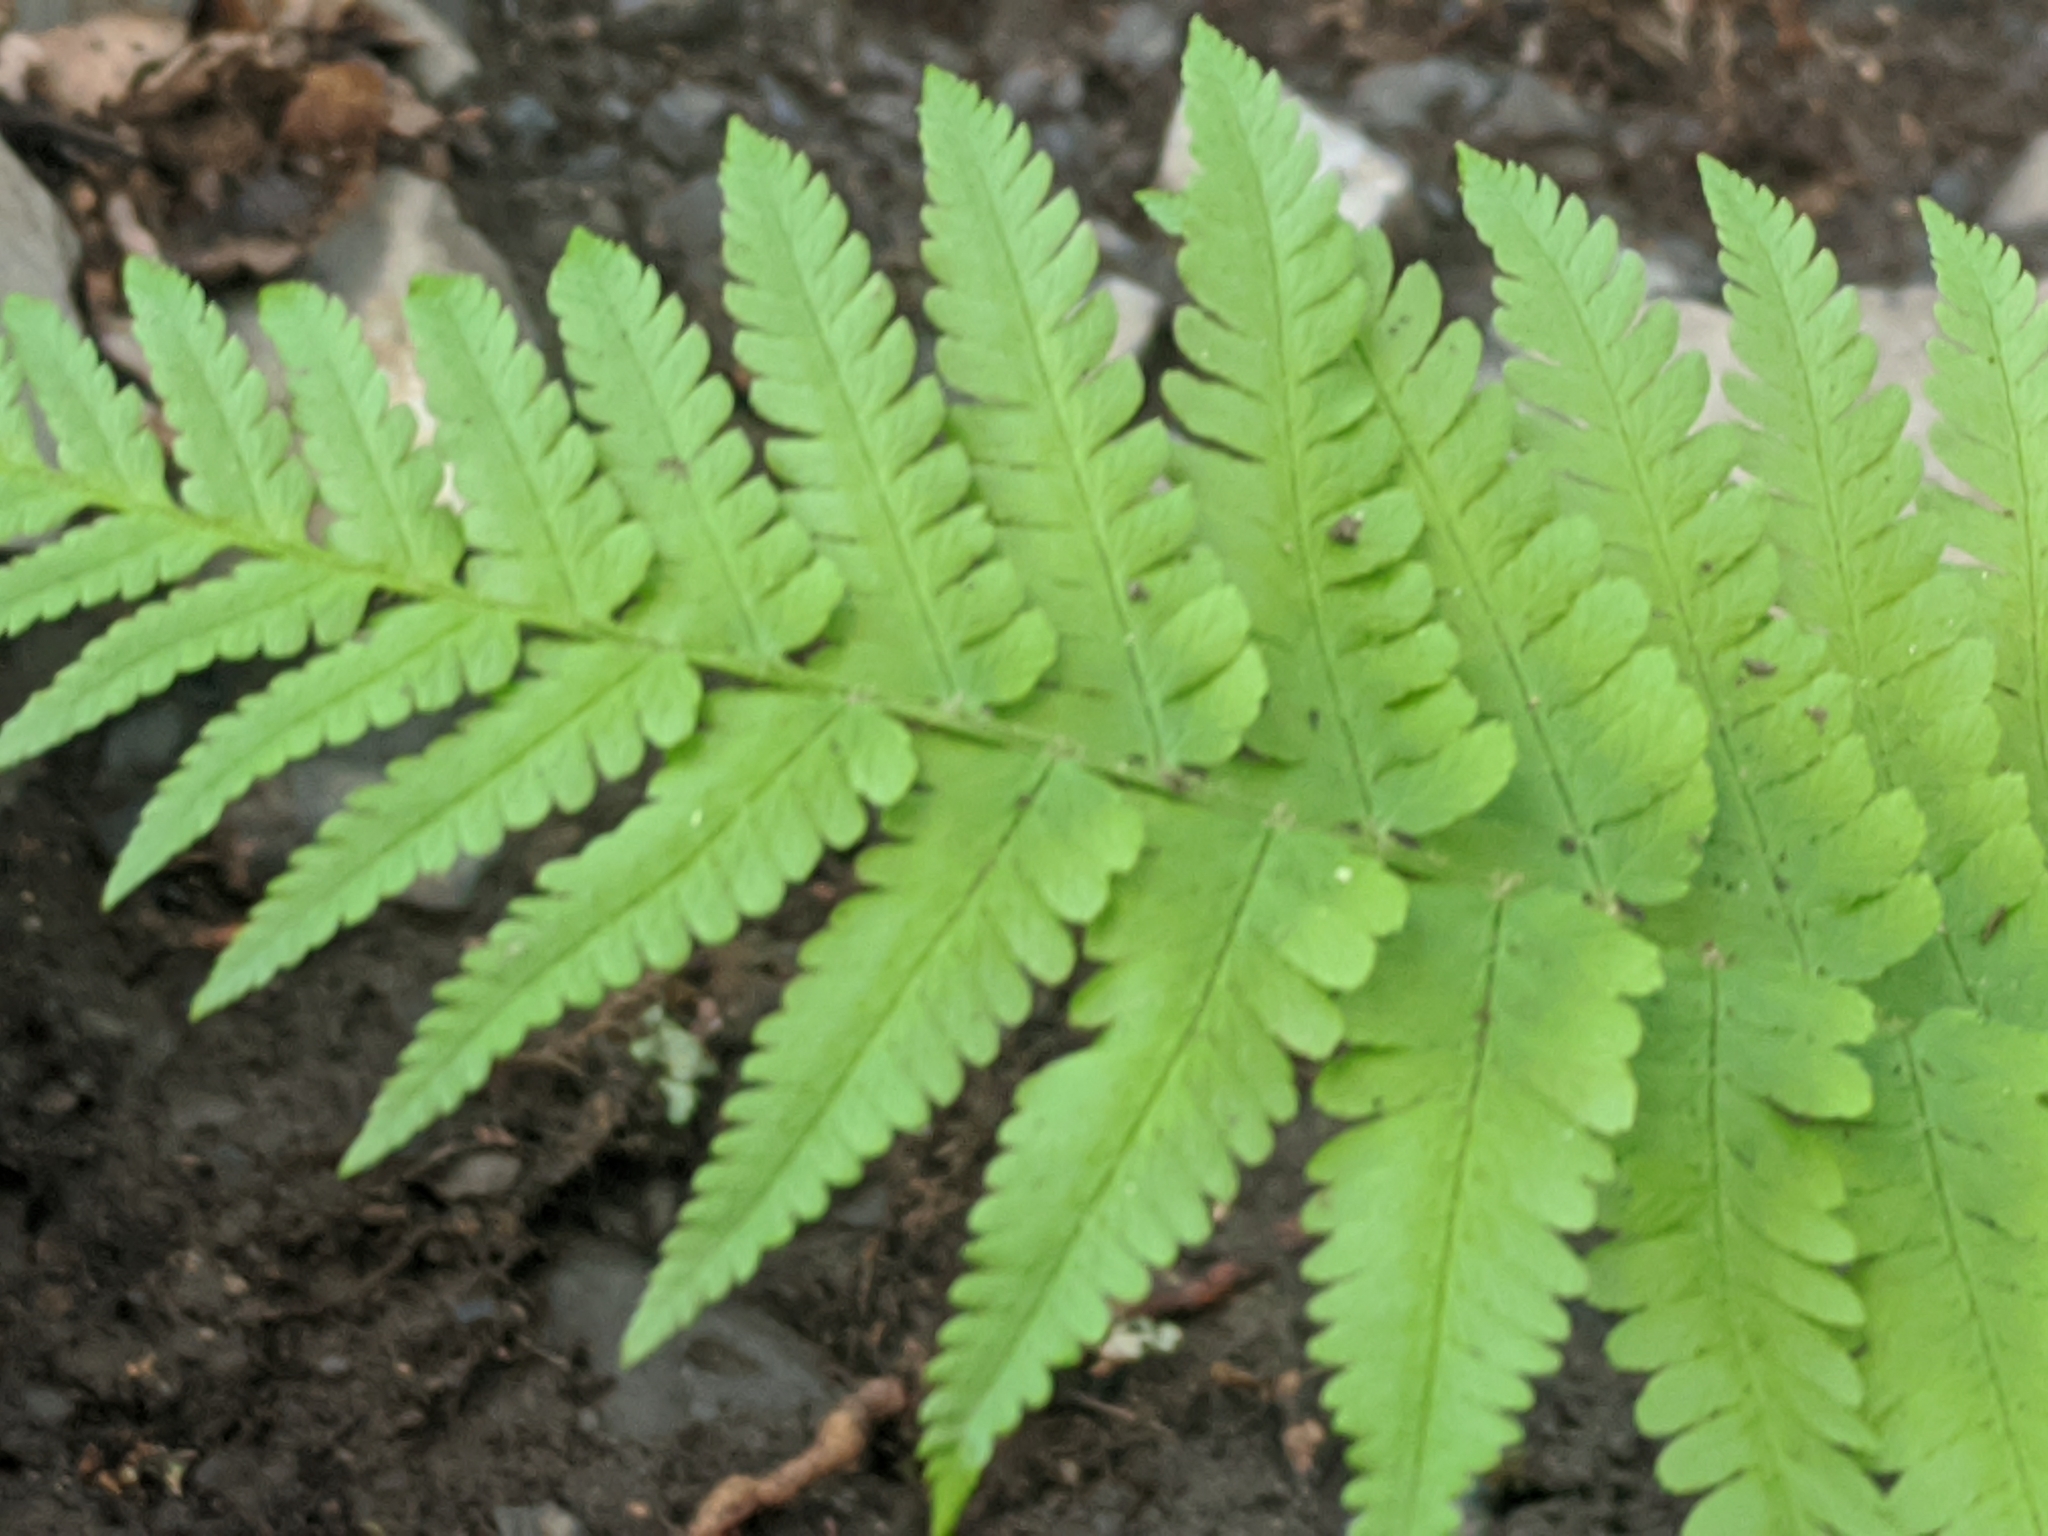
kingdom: Plantae
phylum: Tracheophyta
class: Polypodiopsida
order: Polypodiales
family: Dryopteridaceae
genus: Dryopteris
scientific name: Dryopteris filix-mas
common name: Male fern
